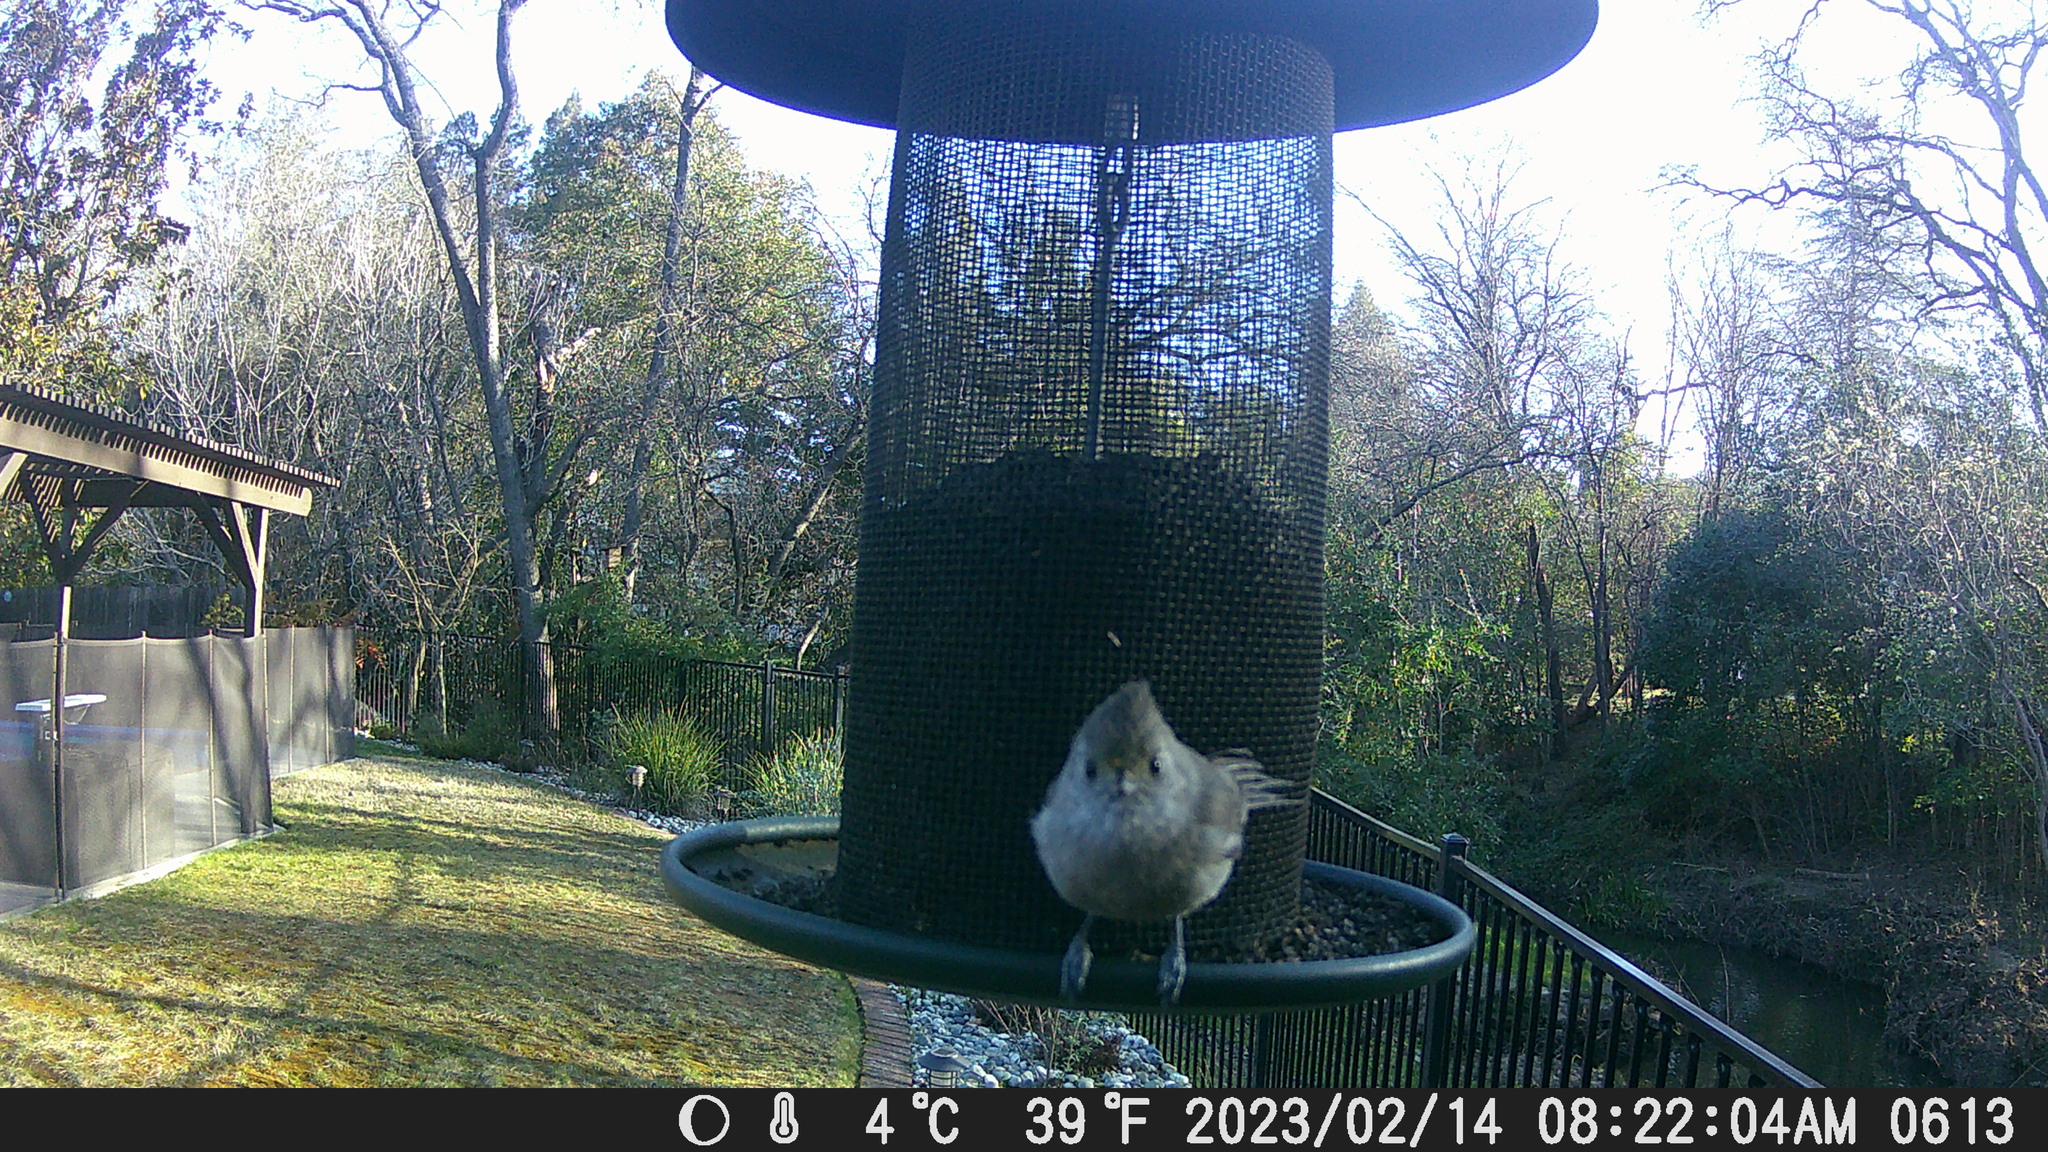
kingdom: Animalia
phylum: Chordata
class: Aves
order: Passeriformes
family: Paridae
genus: Baeolophus
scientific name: Baeolophus inornatus
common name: Oak titmouse
